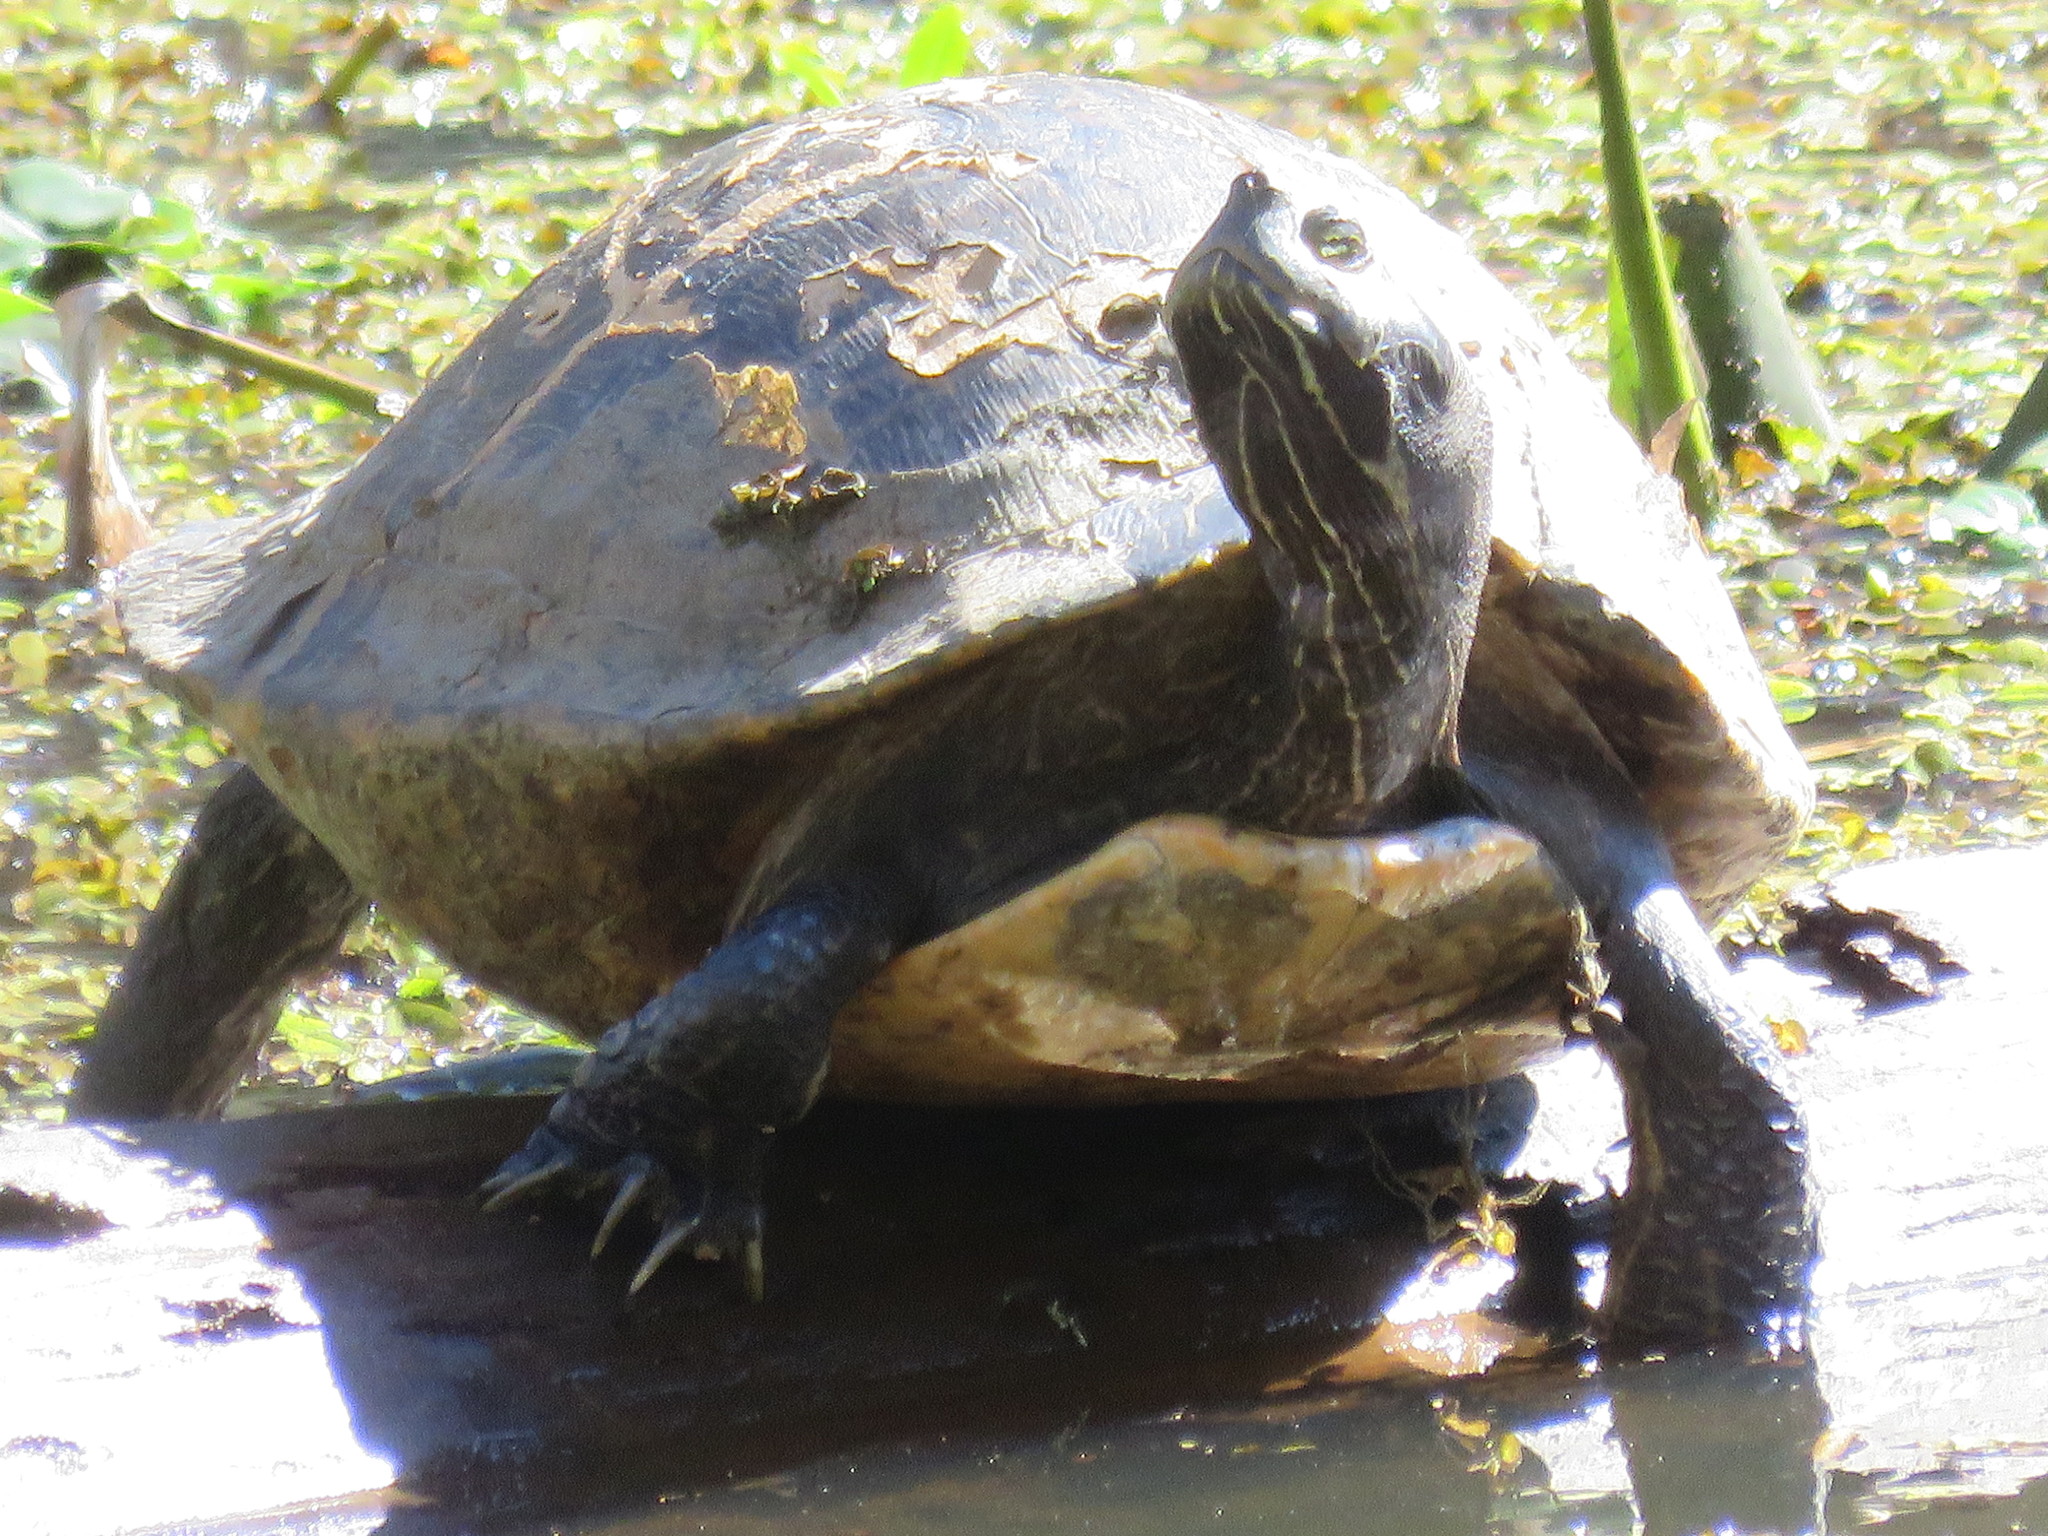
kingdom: Animalia
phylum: Chordata
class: Testudines
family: Emydidae
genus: Pseudemys
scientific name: Pseudemys concinna
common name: Eastern river cooter
